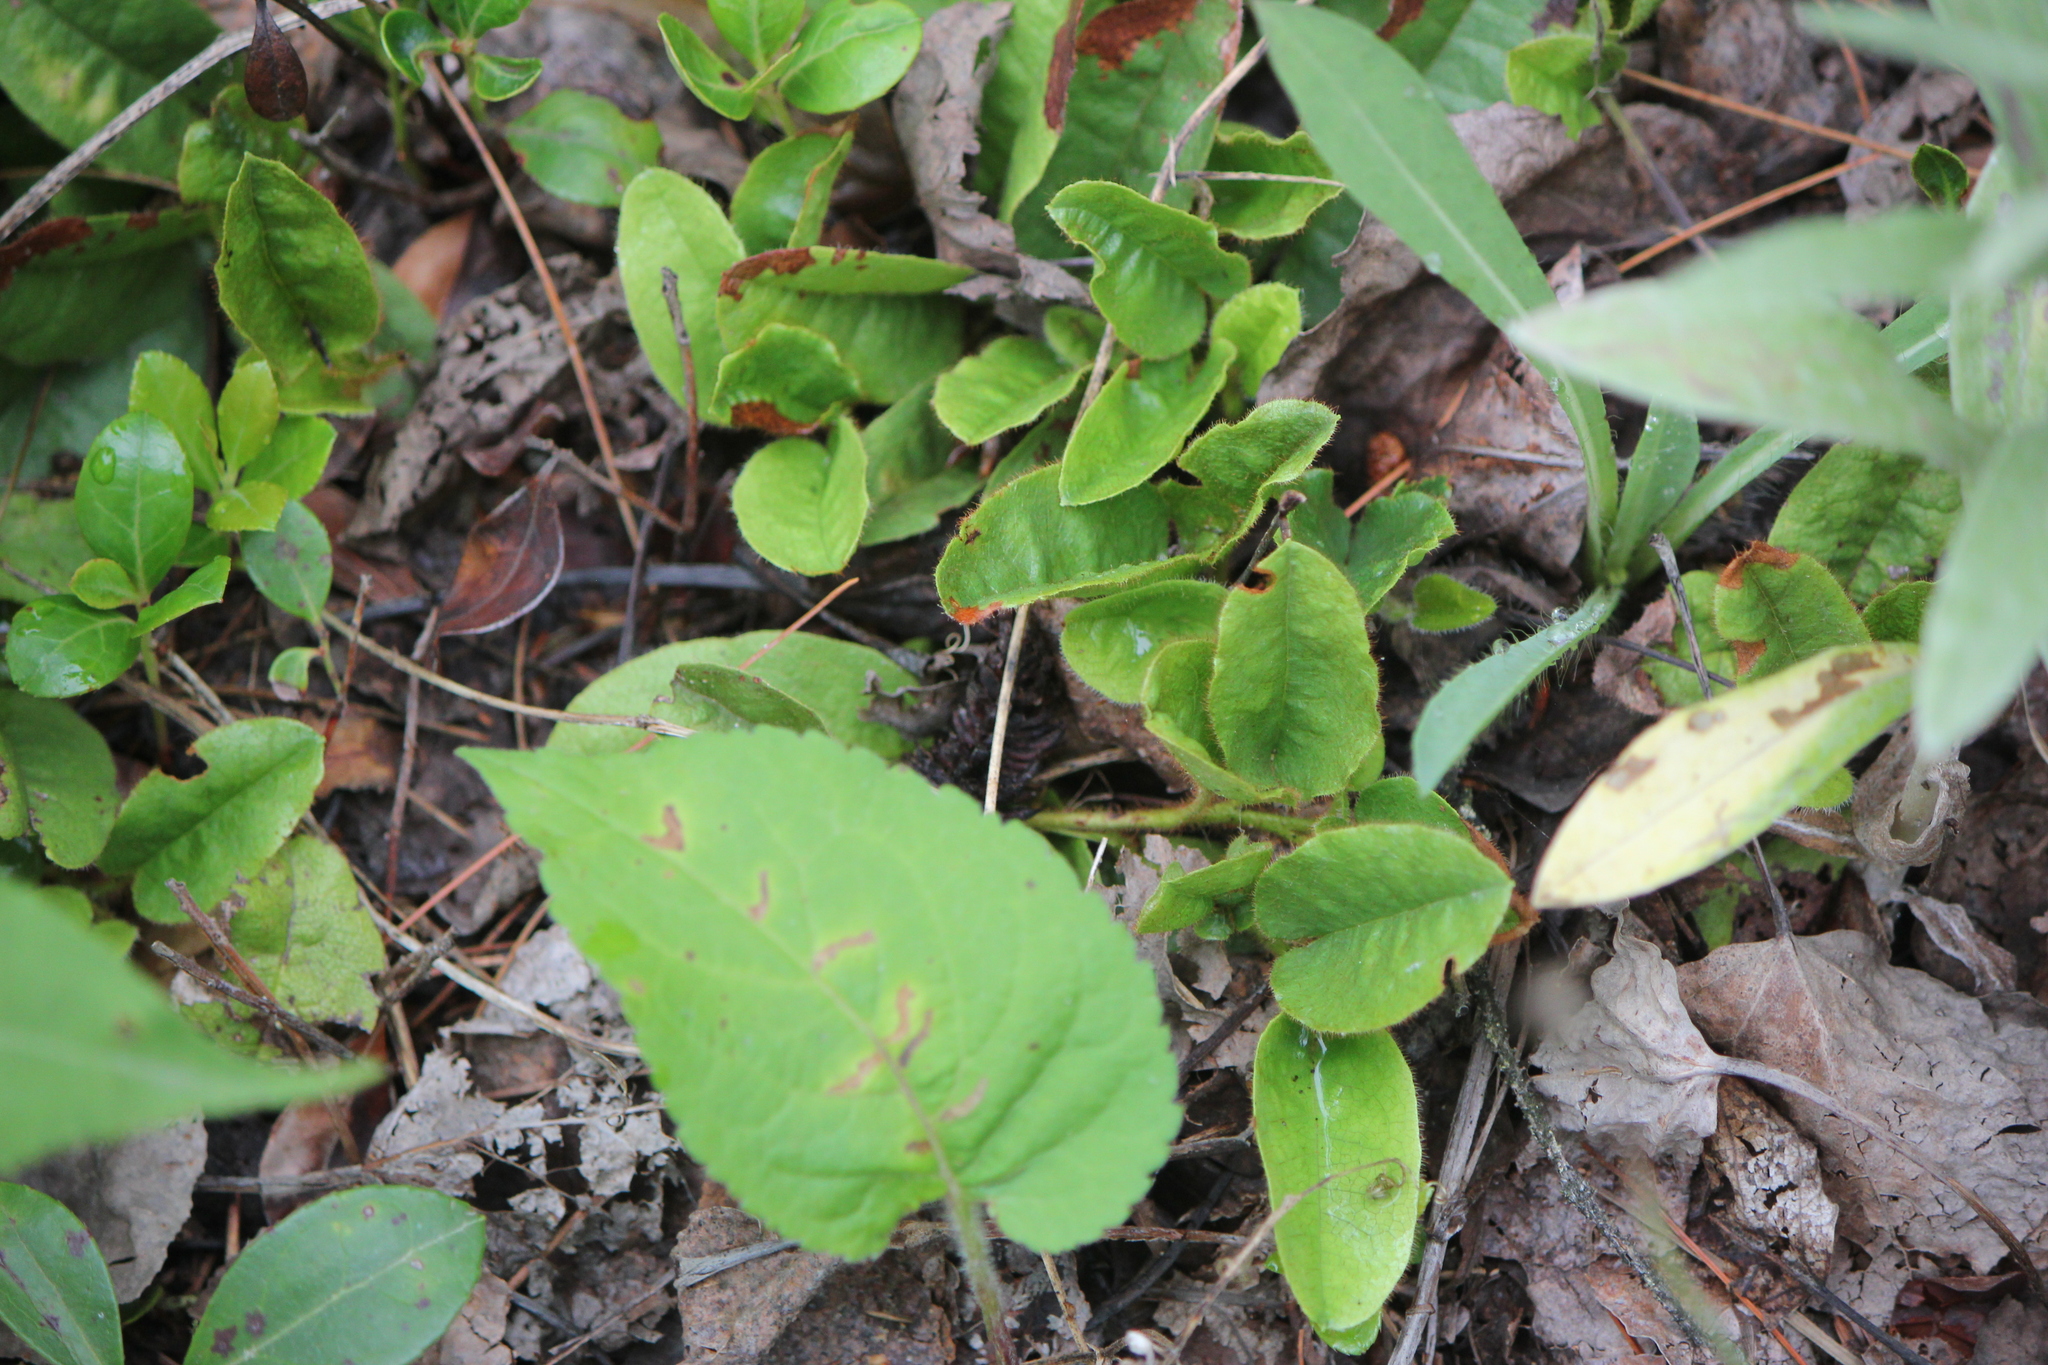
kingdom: Plantae
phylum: Tracheophyta
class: Magnoliopsida
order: Ericales
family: Ericaceae
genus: Epigaea
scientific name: Epigaea repens
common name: Gravelroot
